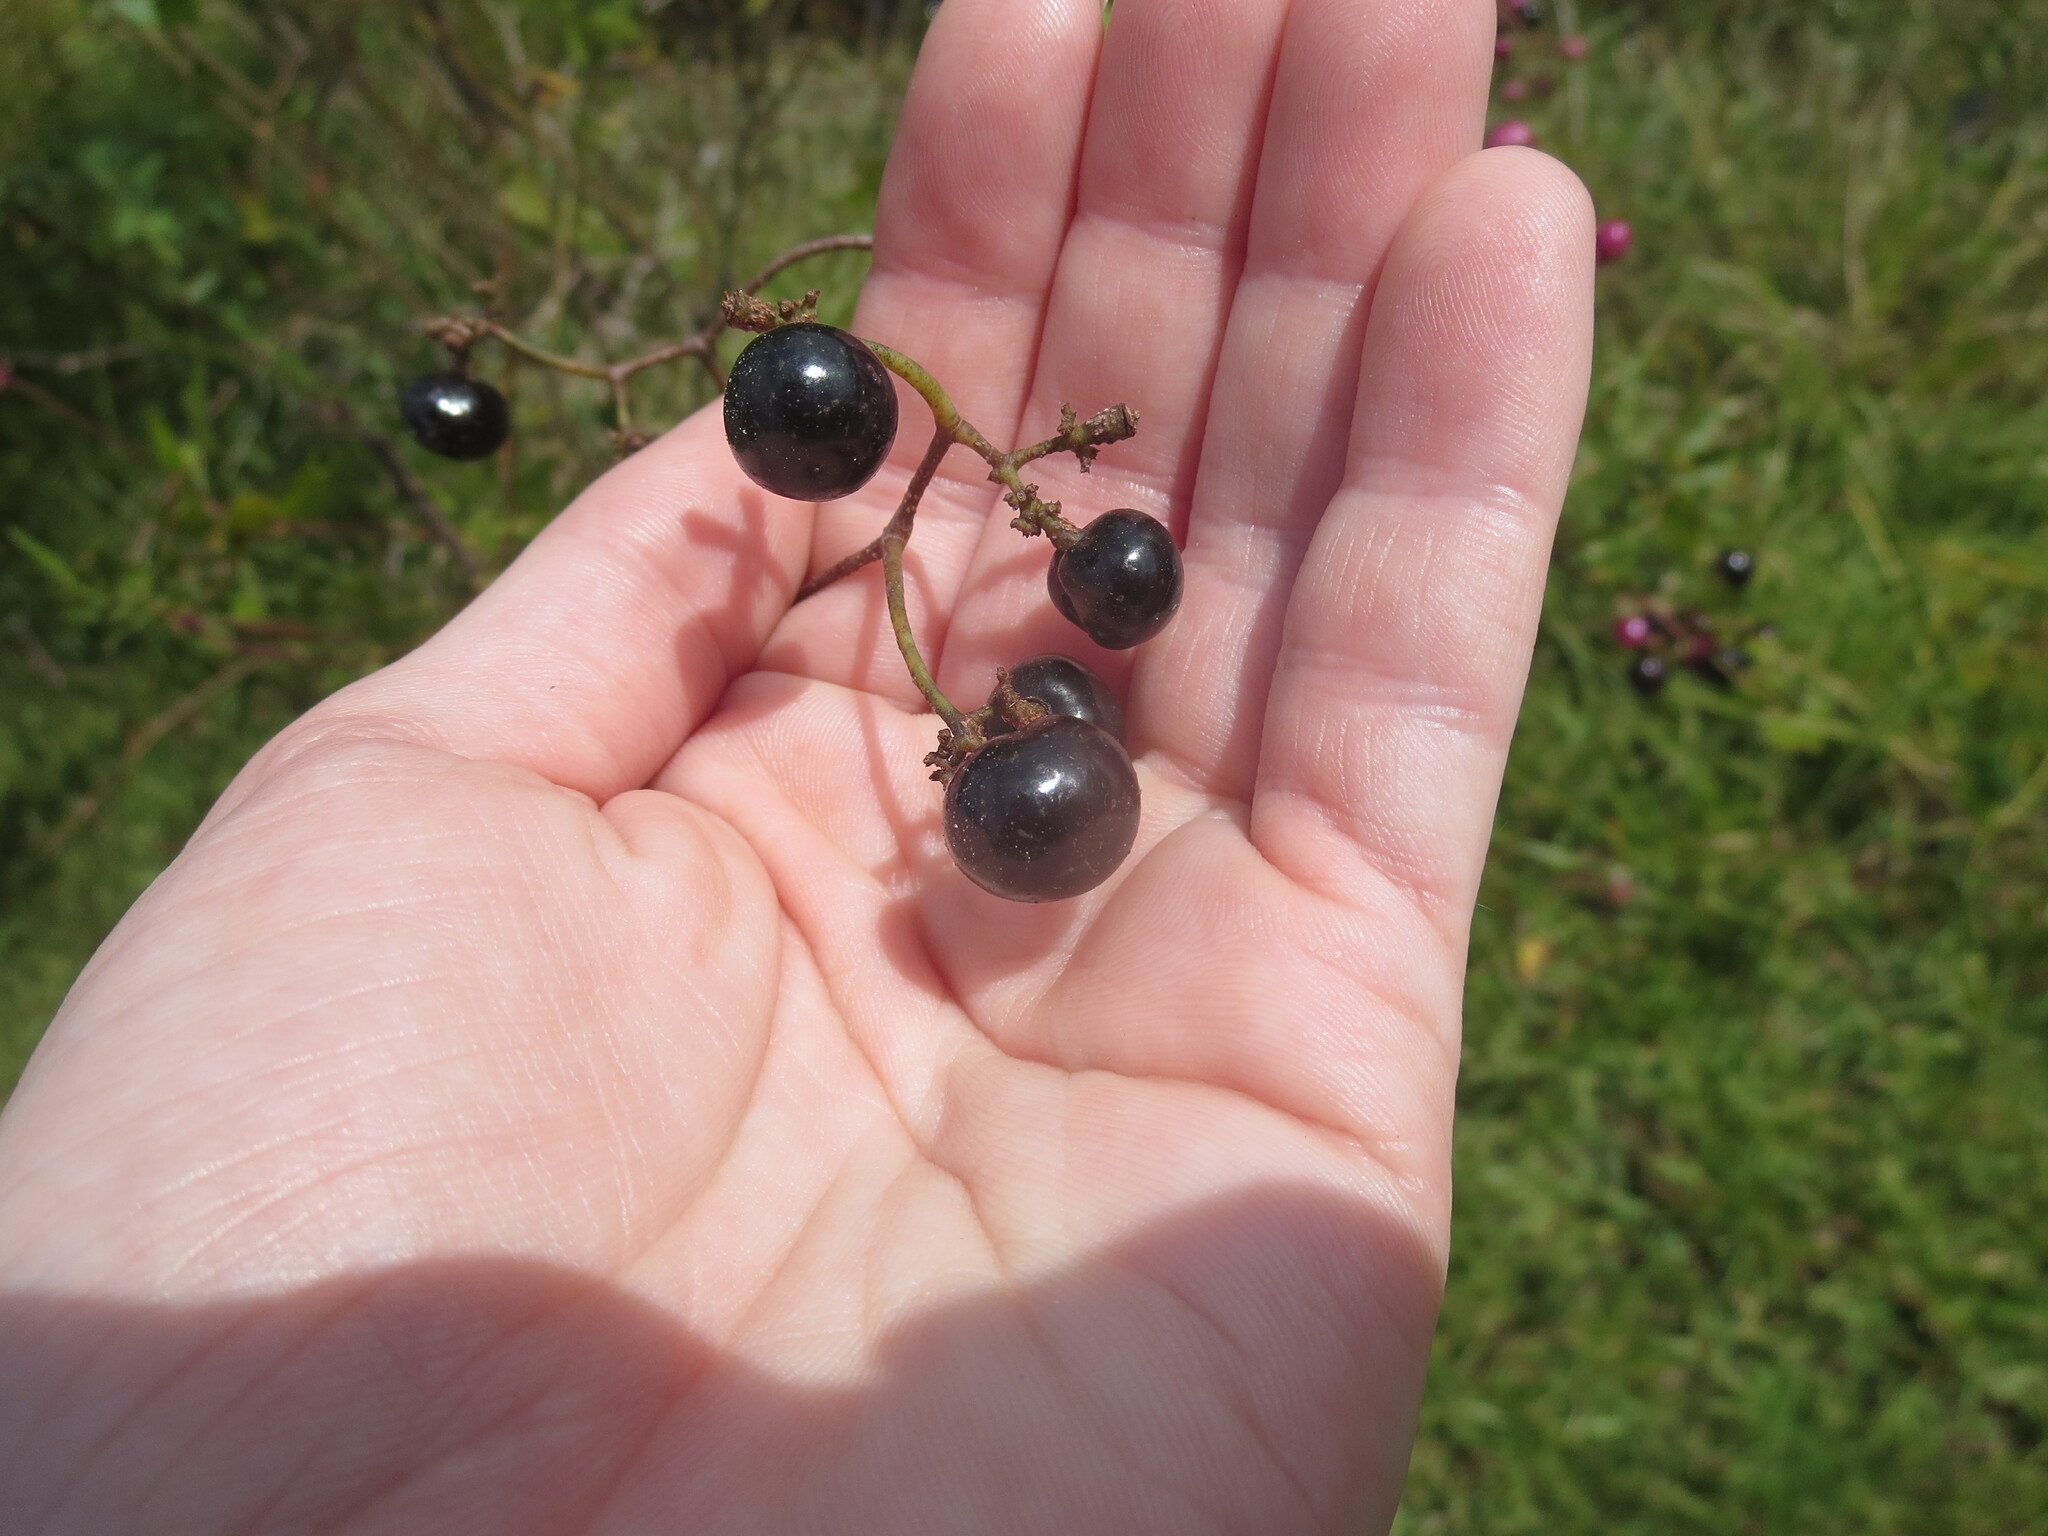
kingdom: Plantae
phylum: Tracheophyta
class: Magnoliopsida
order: Vitales
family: Vitaceae
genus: Nekemias
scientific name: Nekemias arborea
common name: Peppervine
